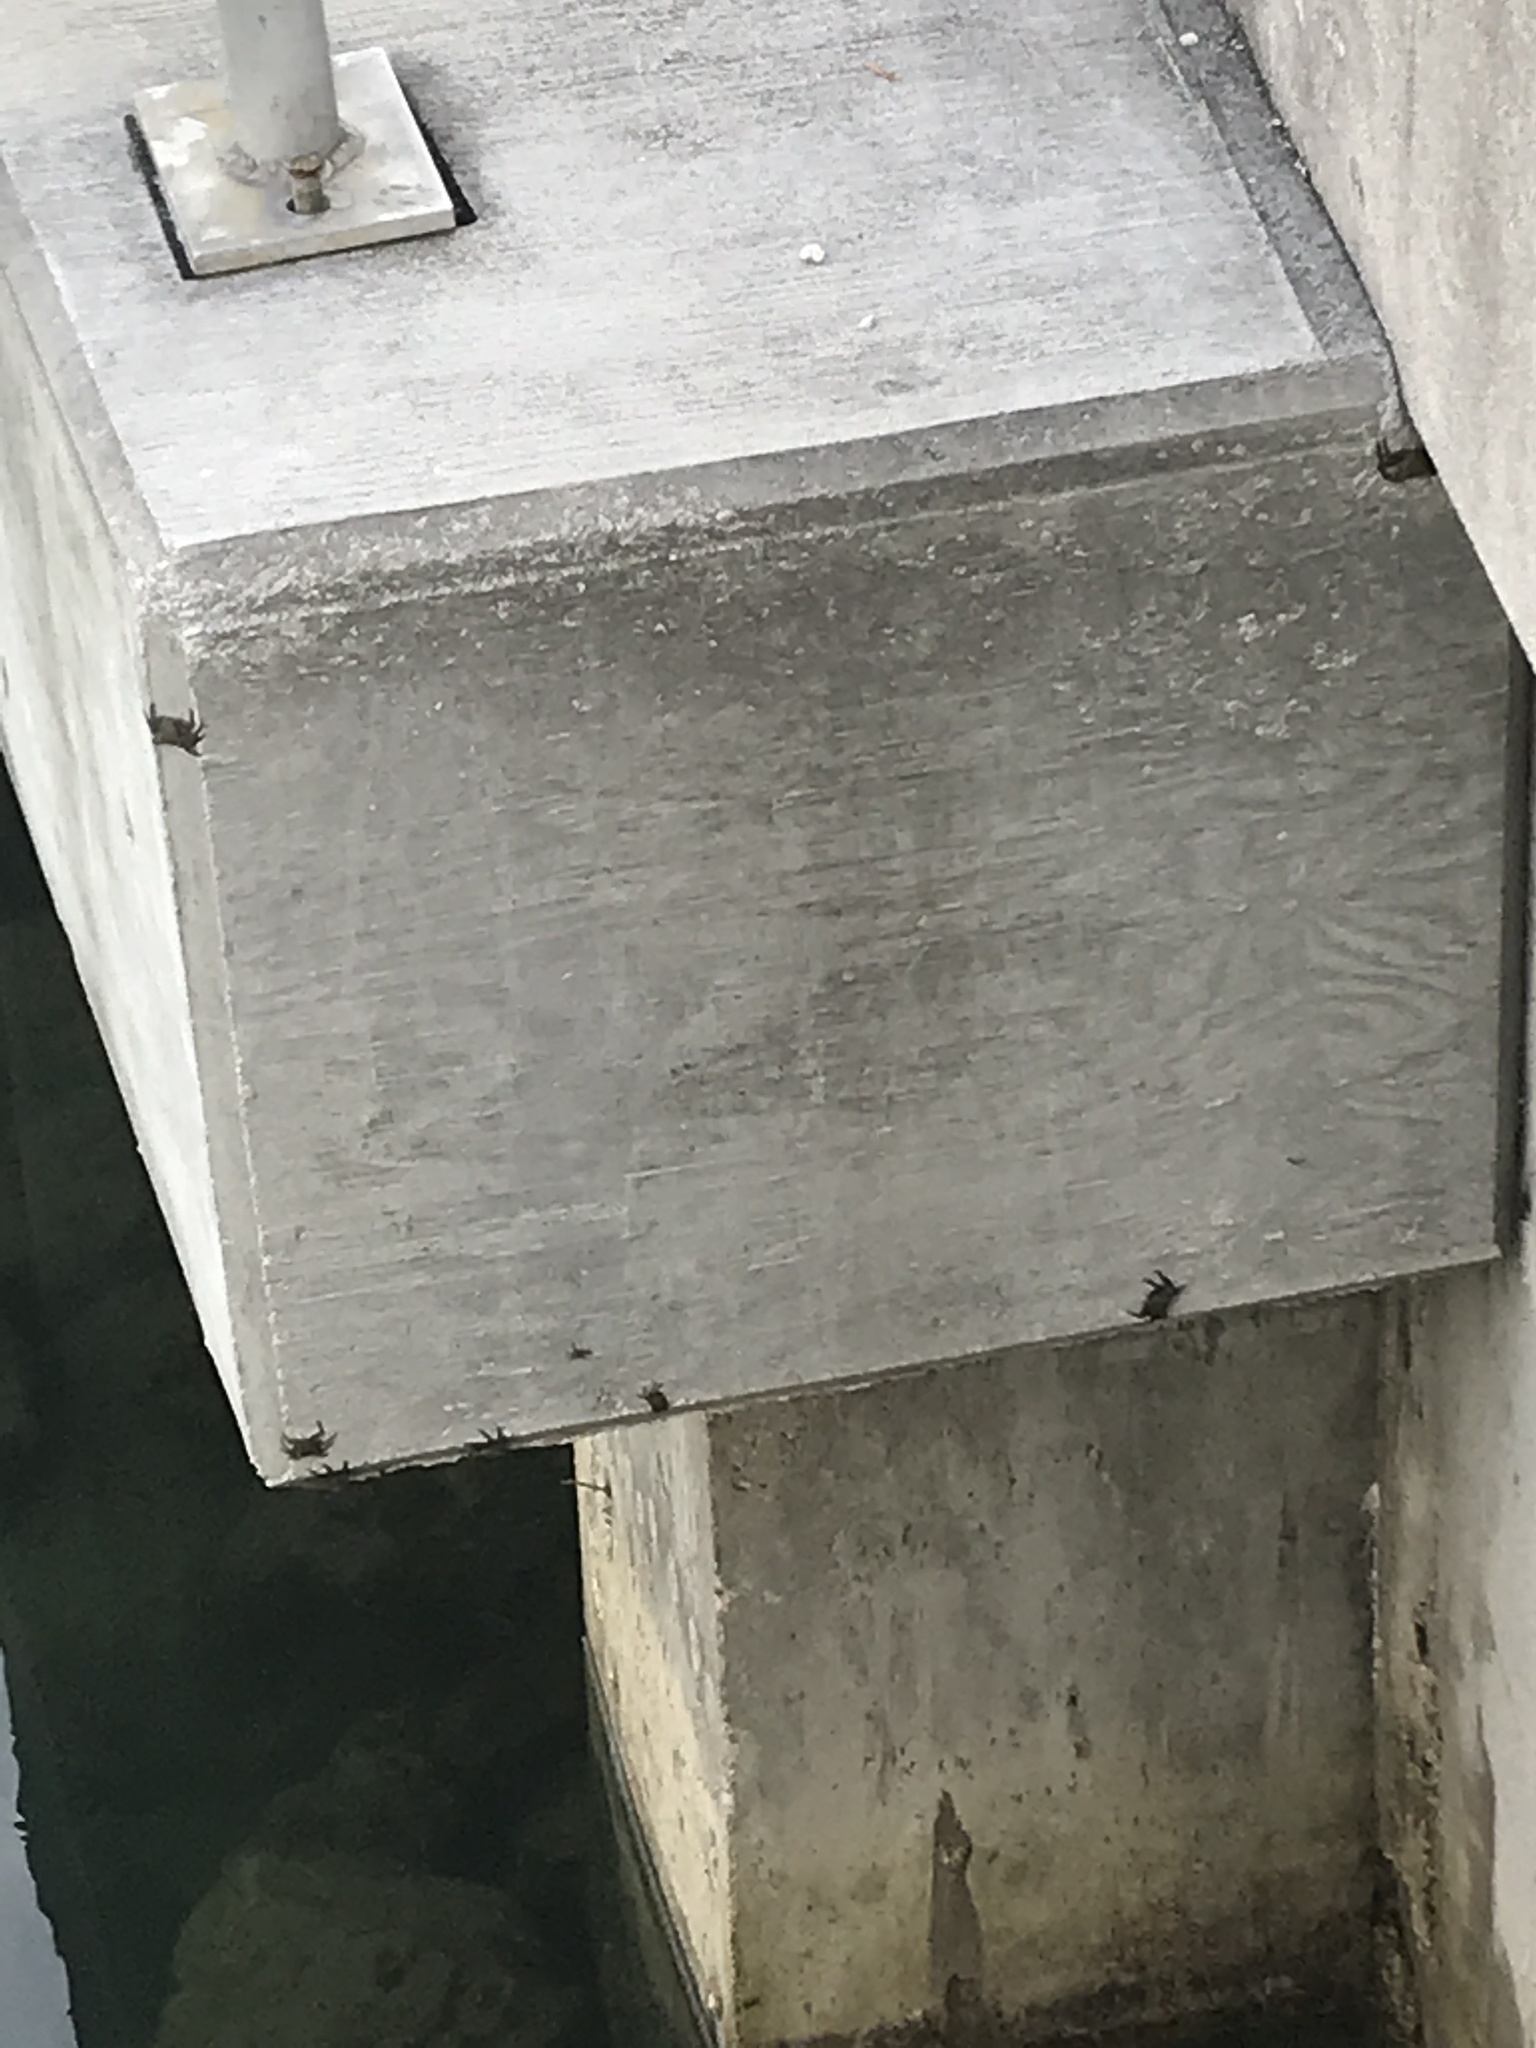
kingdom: Animalia
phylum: Arthropoda
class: Malacostraca
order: Decapoda
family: Sesarmidae
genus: Aratus
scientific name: Aratus pisonii
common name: Mangrove crab
